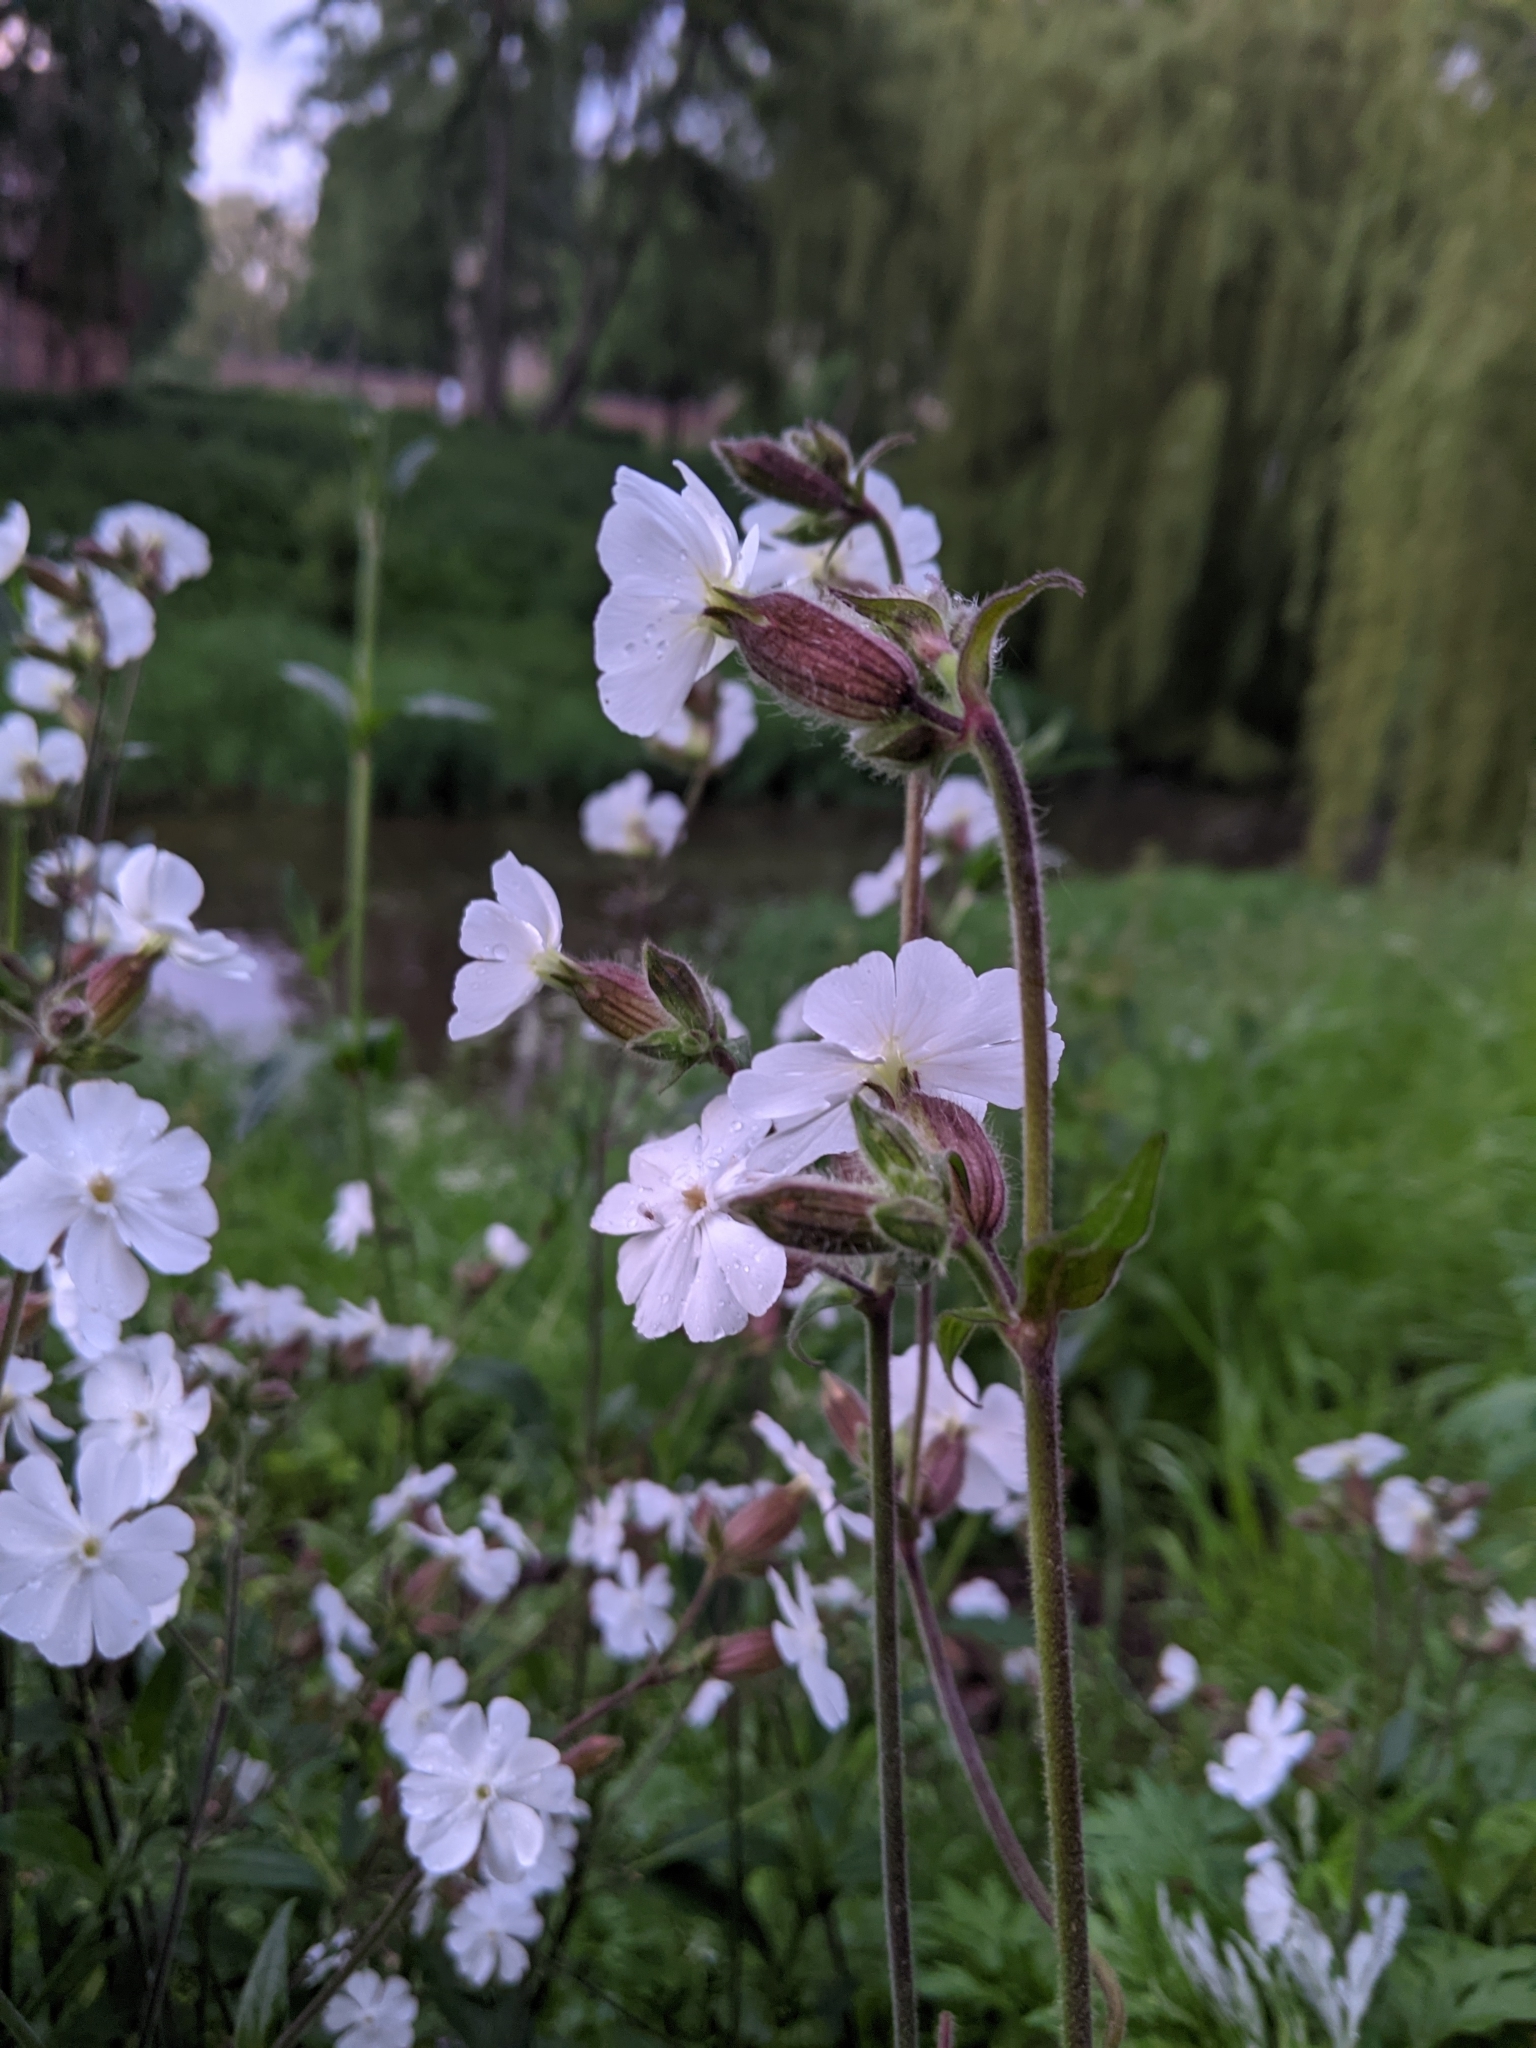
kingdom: Plantae
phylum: Tracheophyta
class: Magnoliopsida
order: Caryophyllales
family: Caryophyllaceae
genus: Silene
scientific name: Silene latifolia
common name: White campion
